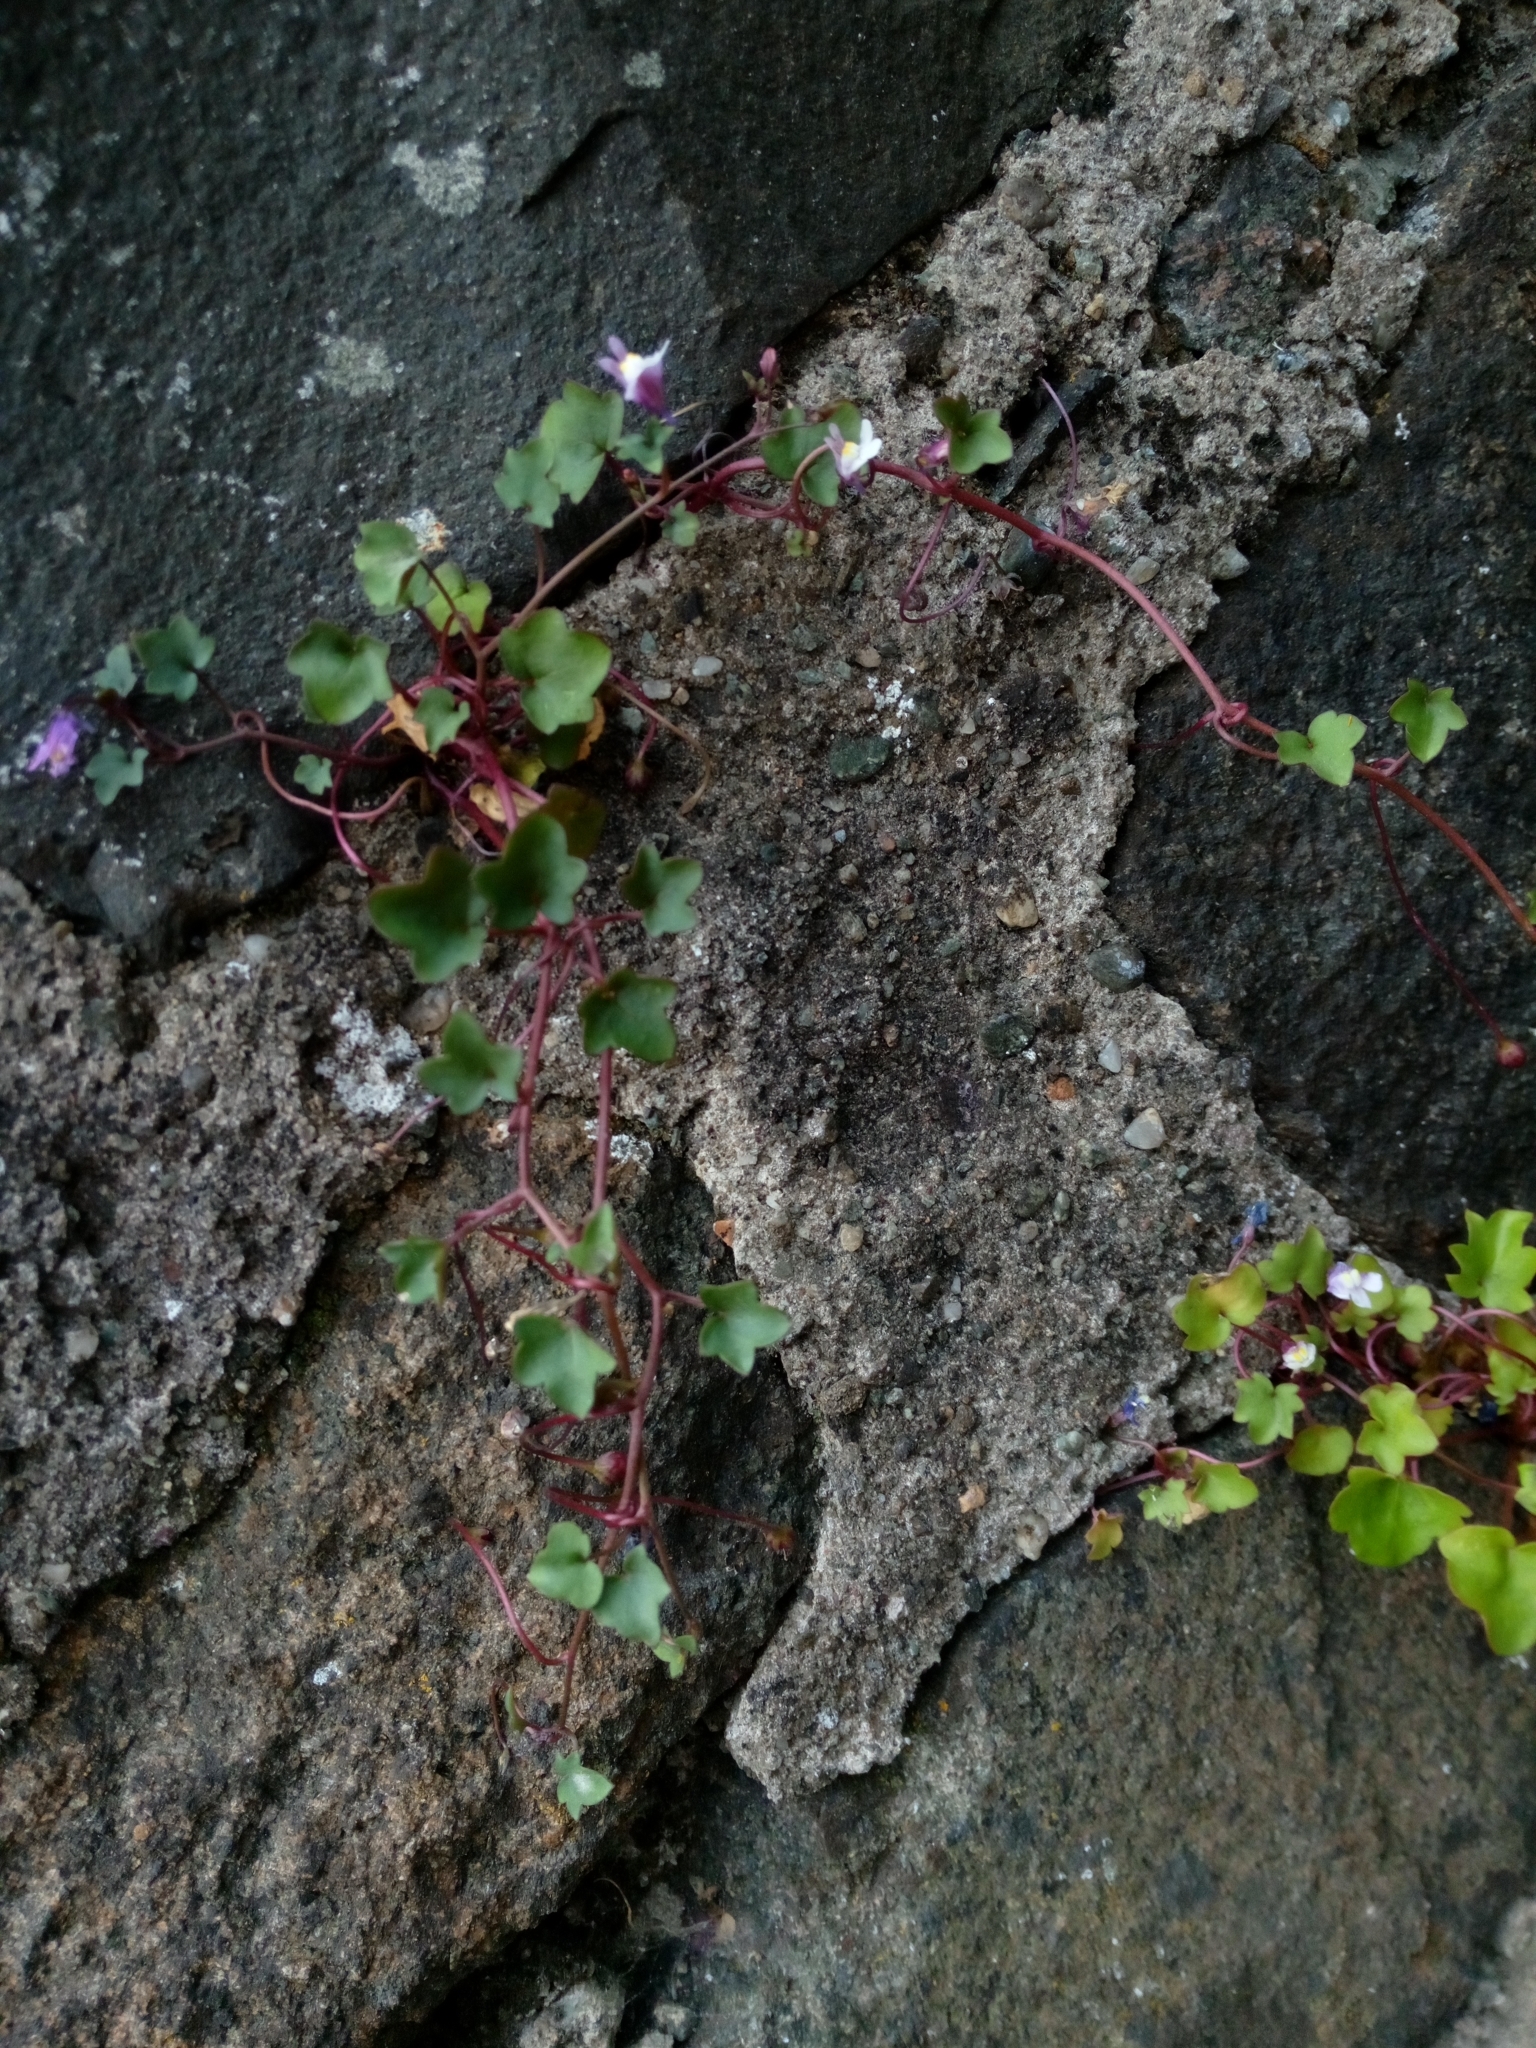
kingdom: Plantae
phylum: Tracheophyta
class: Magnoliopsida
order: Lamiales
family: Plantaginaceae
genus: Cymbalaria
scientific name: Cymbalaria muralis
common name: Ivy-leaved toadflax
